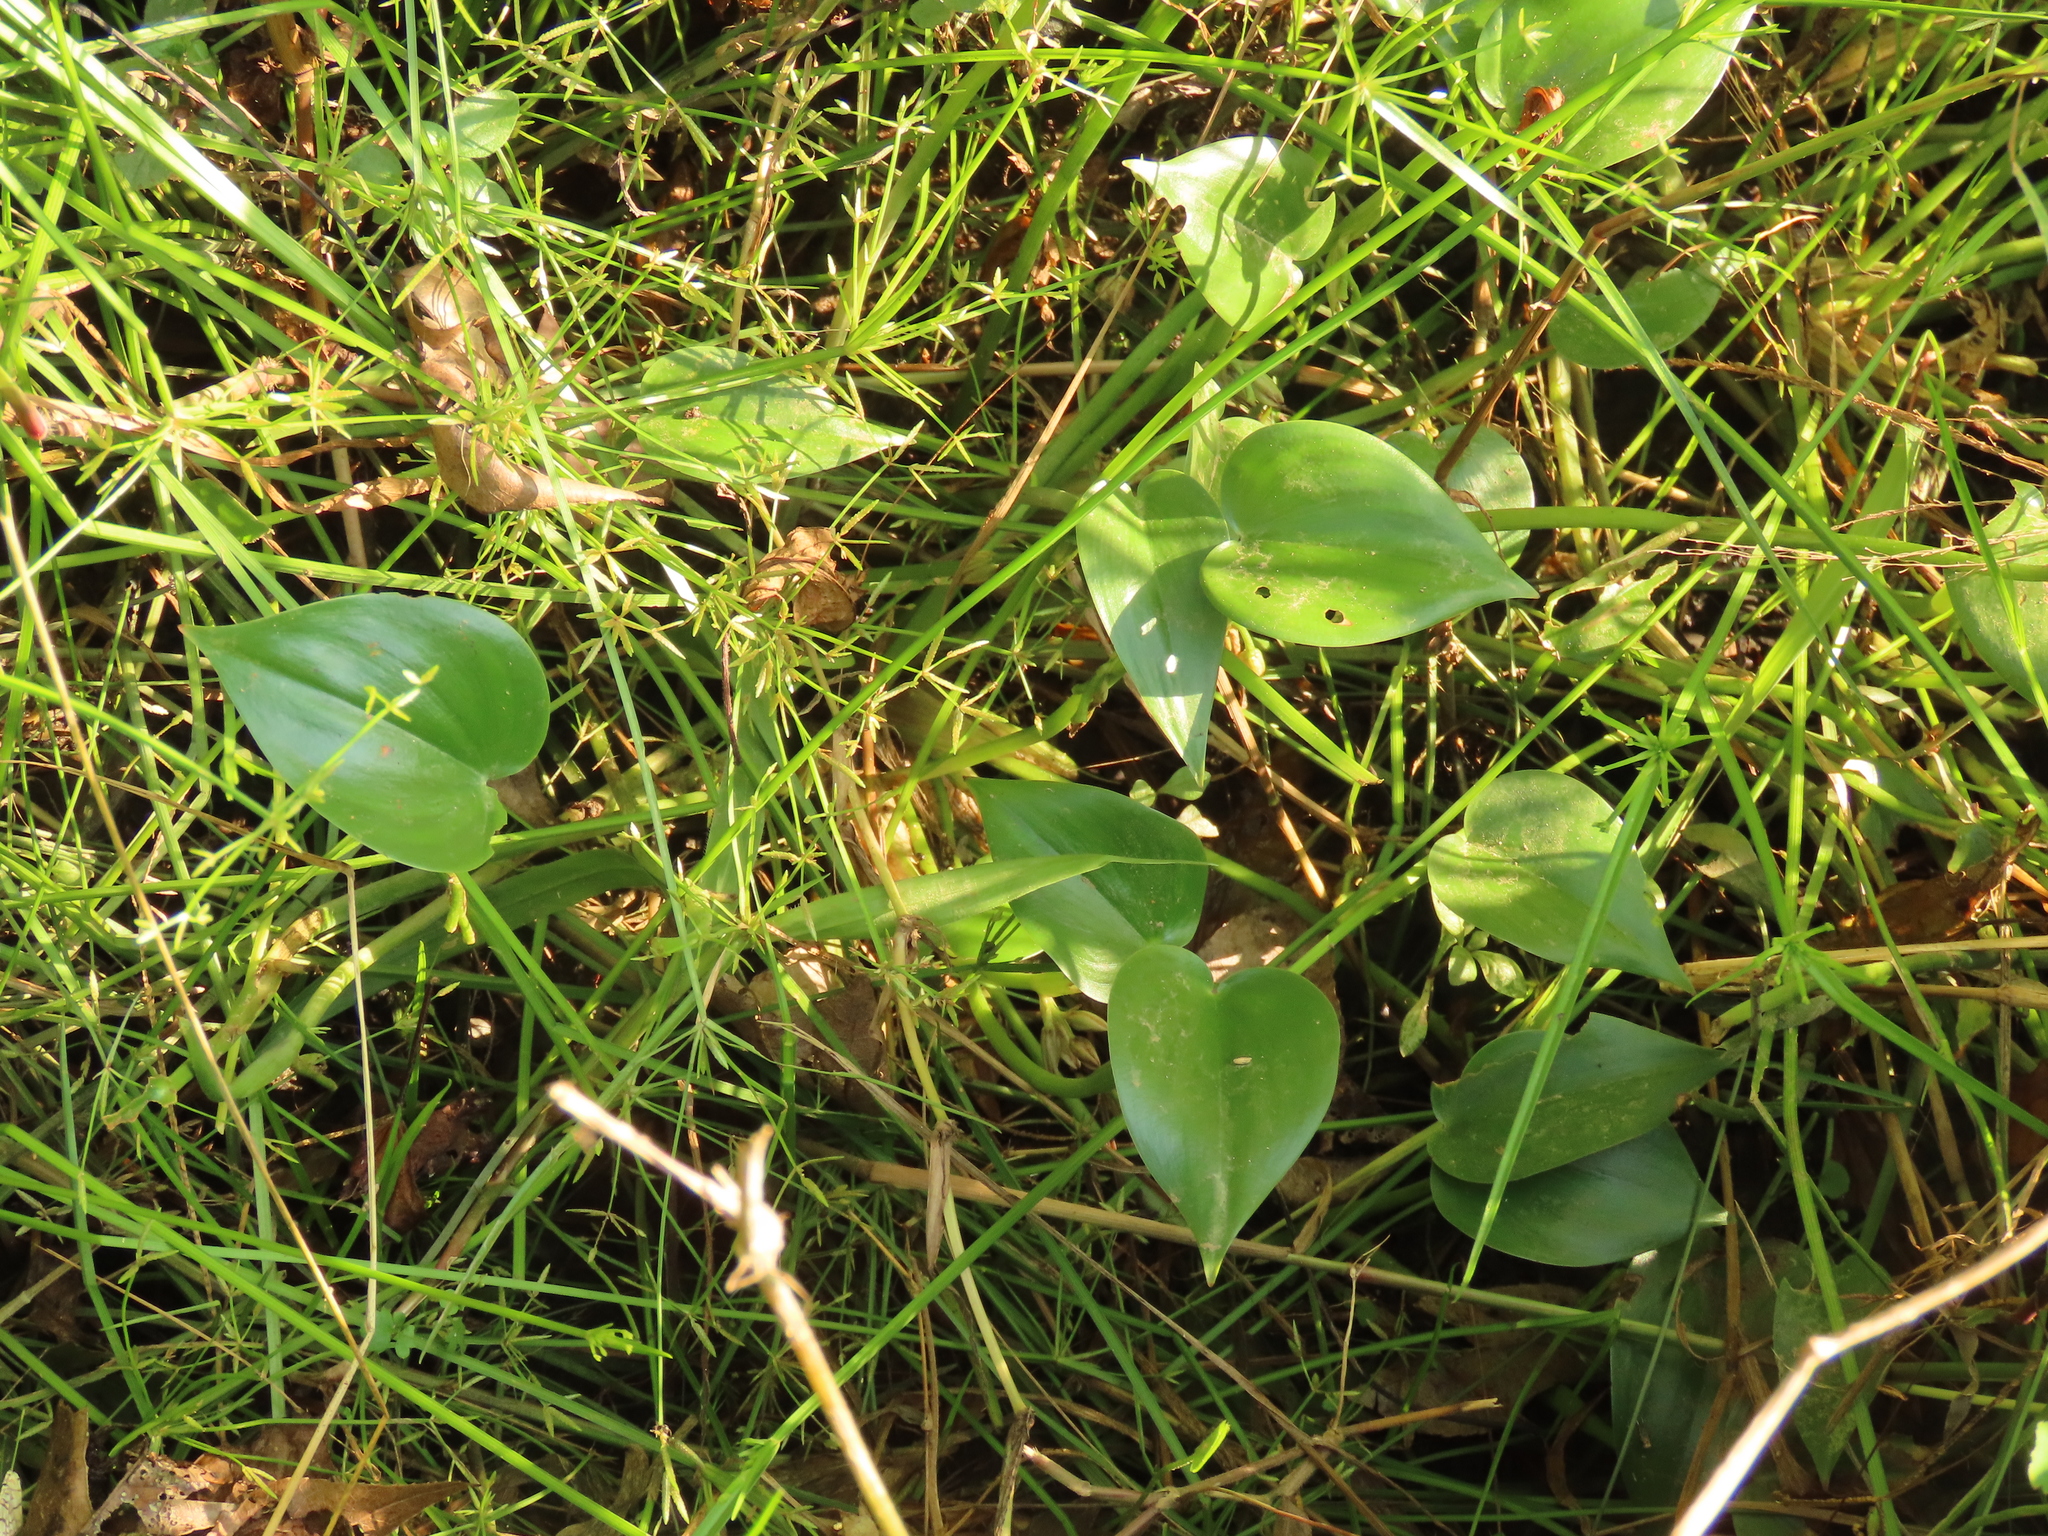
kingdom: Plantae
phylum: Tracheophyta
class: Liliopsida
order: Commelinales
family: Pontederiaceae
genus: Pontederia
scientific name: Pontederia vaginalis
